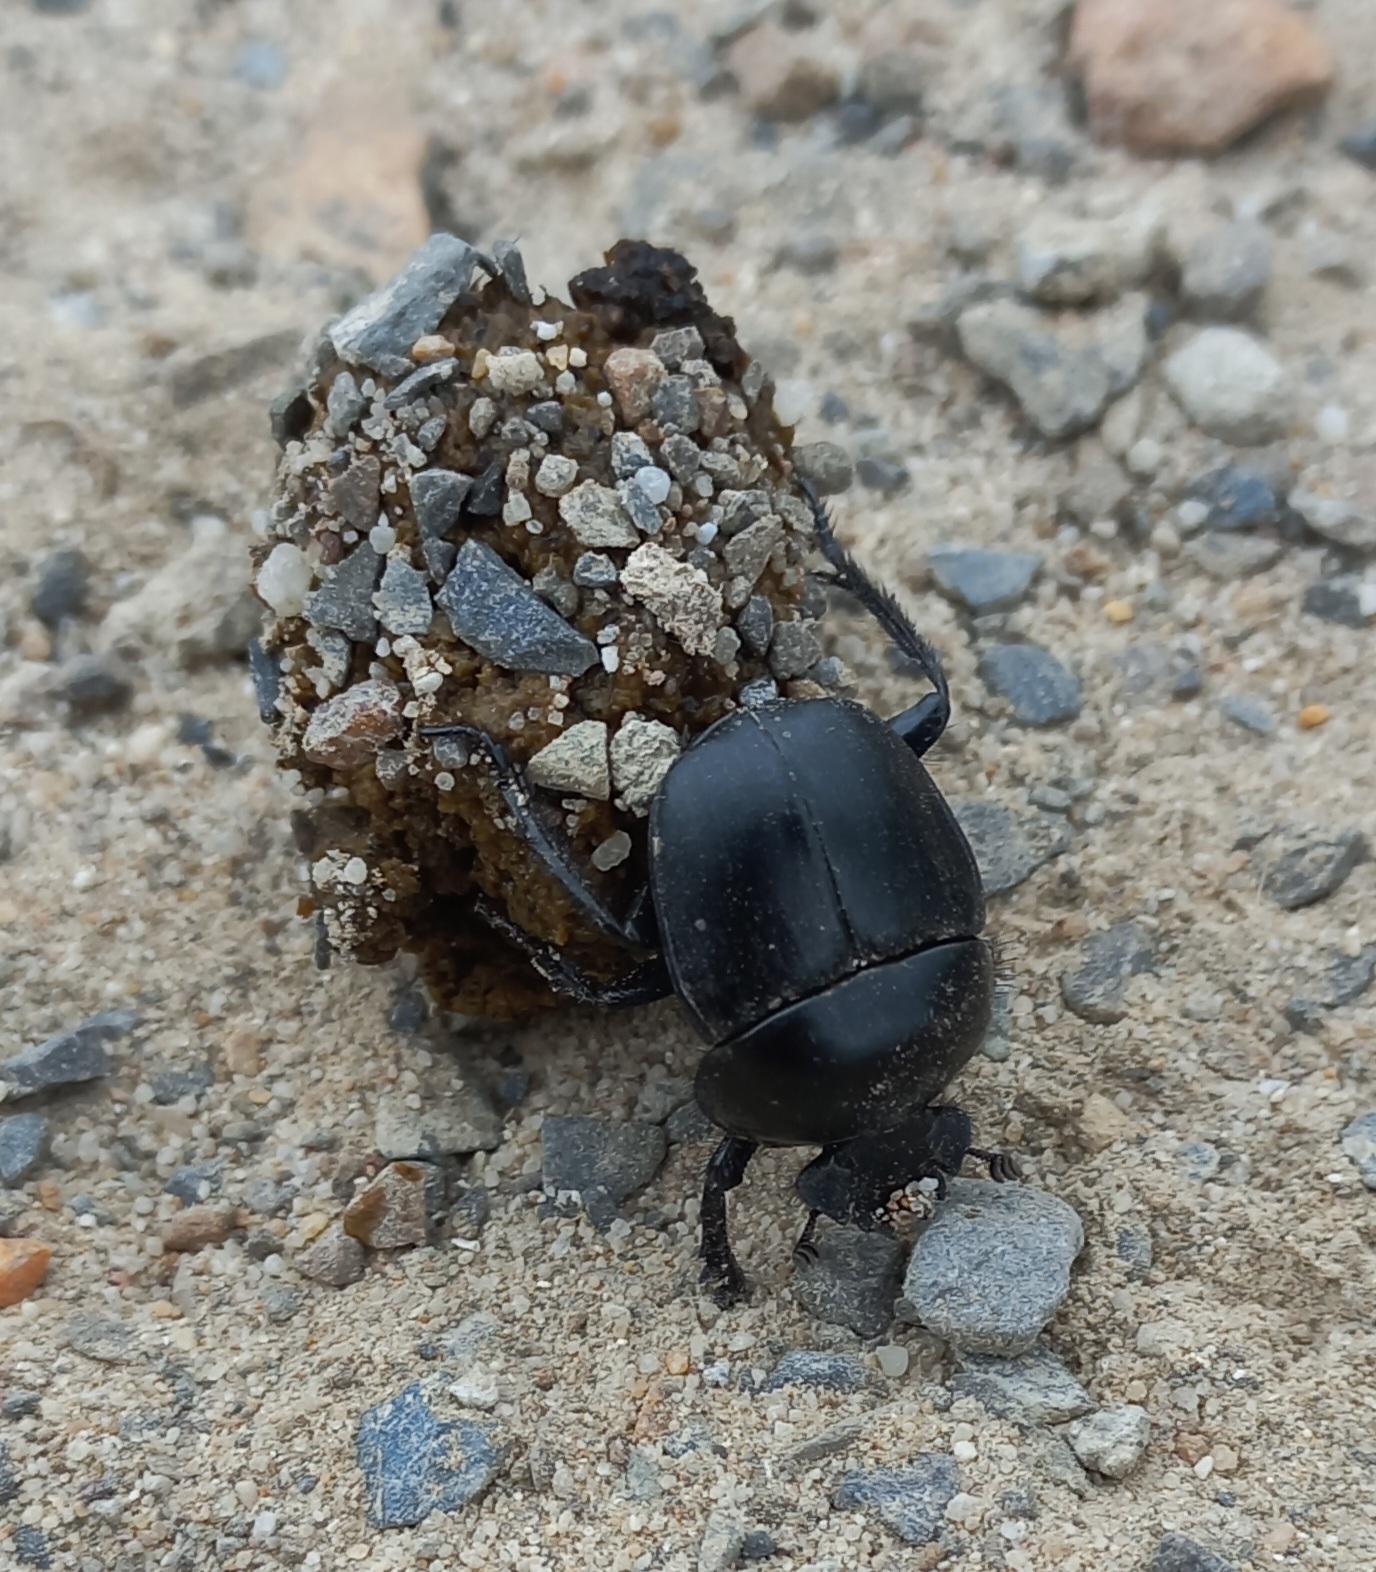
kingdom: Animalia
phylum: Arthropoda
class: Insecta
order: Coleoptera
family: Scarabaeidae
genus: Scarabaeus
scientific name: Scarabaeus convexus
